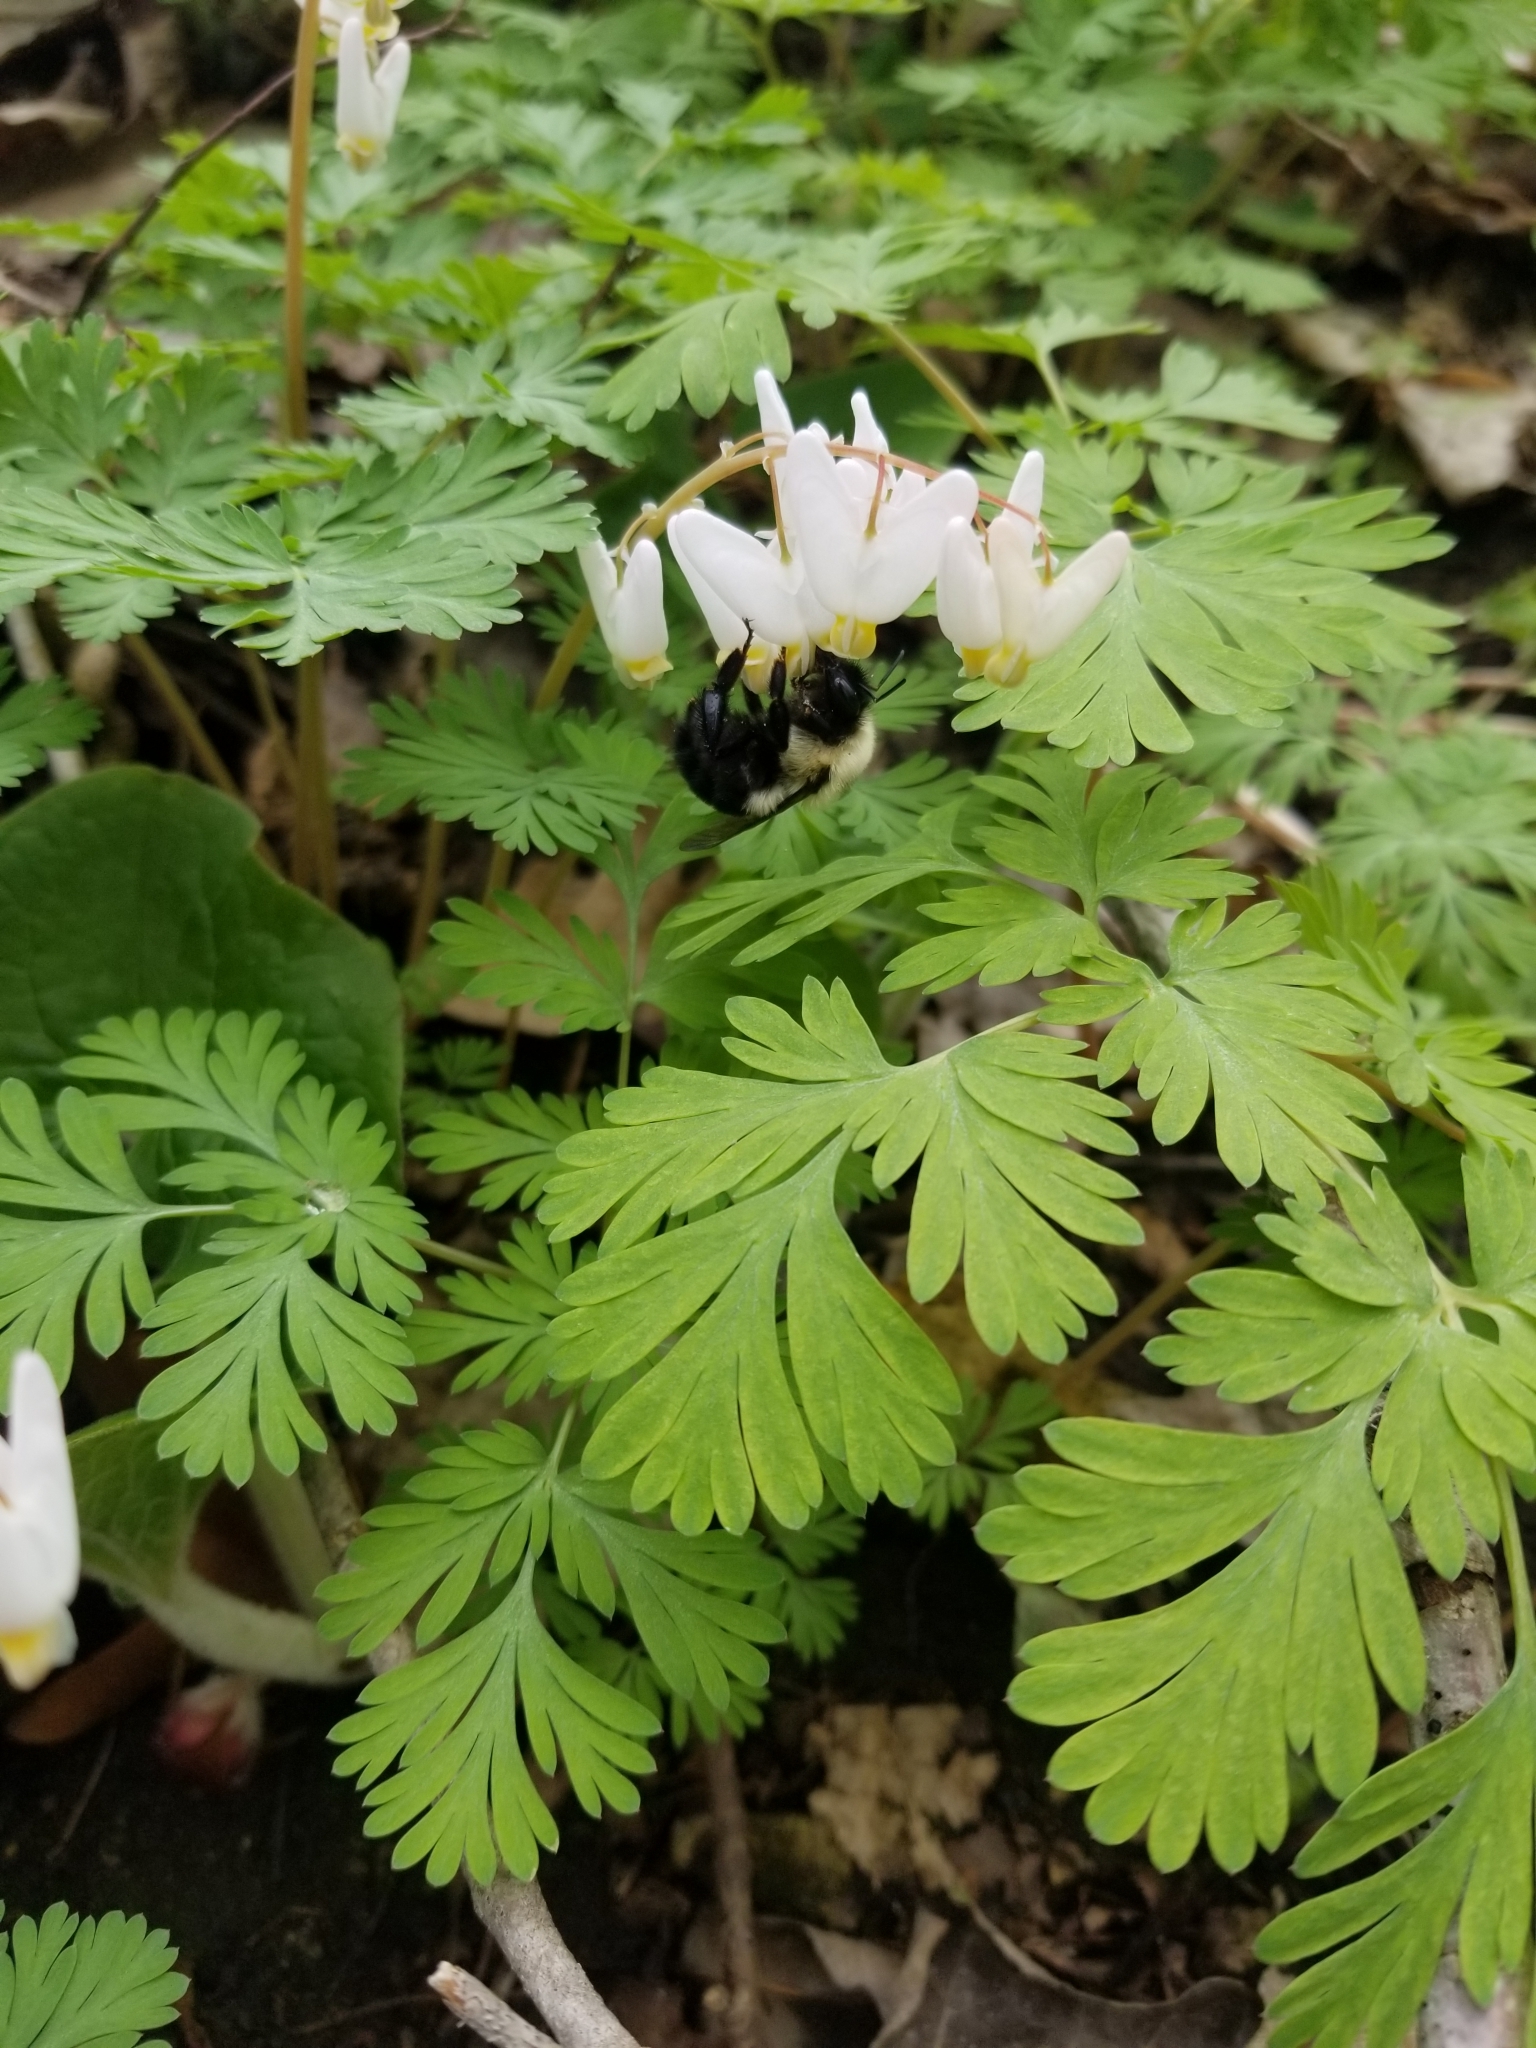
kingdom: Animalia
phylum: Arthropoda
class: Insecta
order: Hymenoptera
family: Apidae
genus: Bombus
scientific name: Bombus bimaculatus
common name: Two-spotted bumble bee
